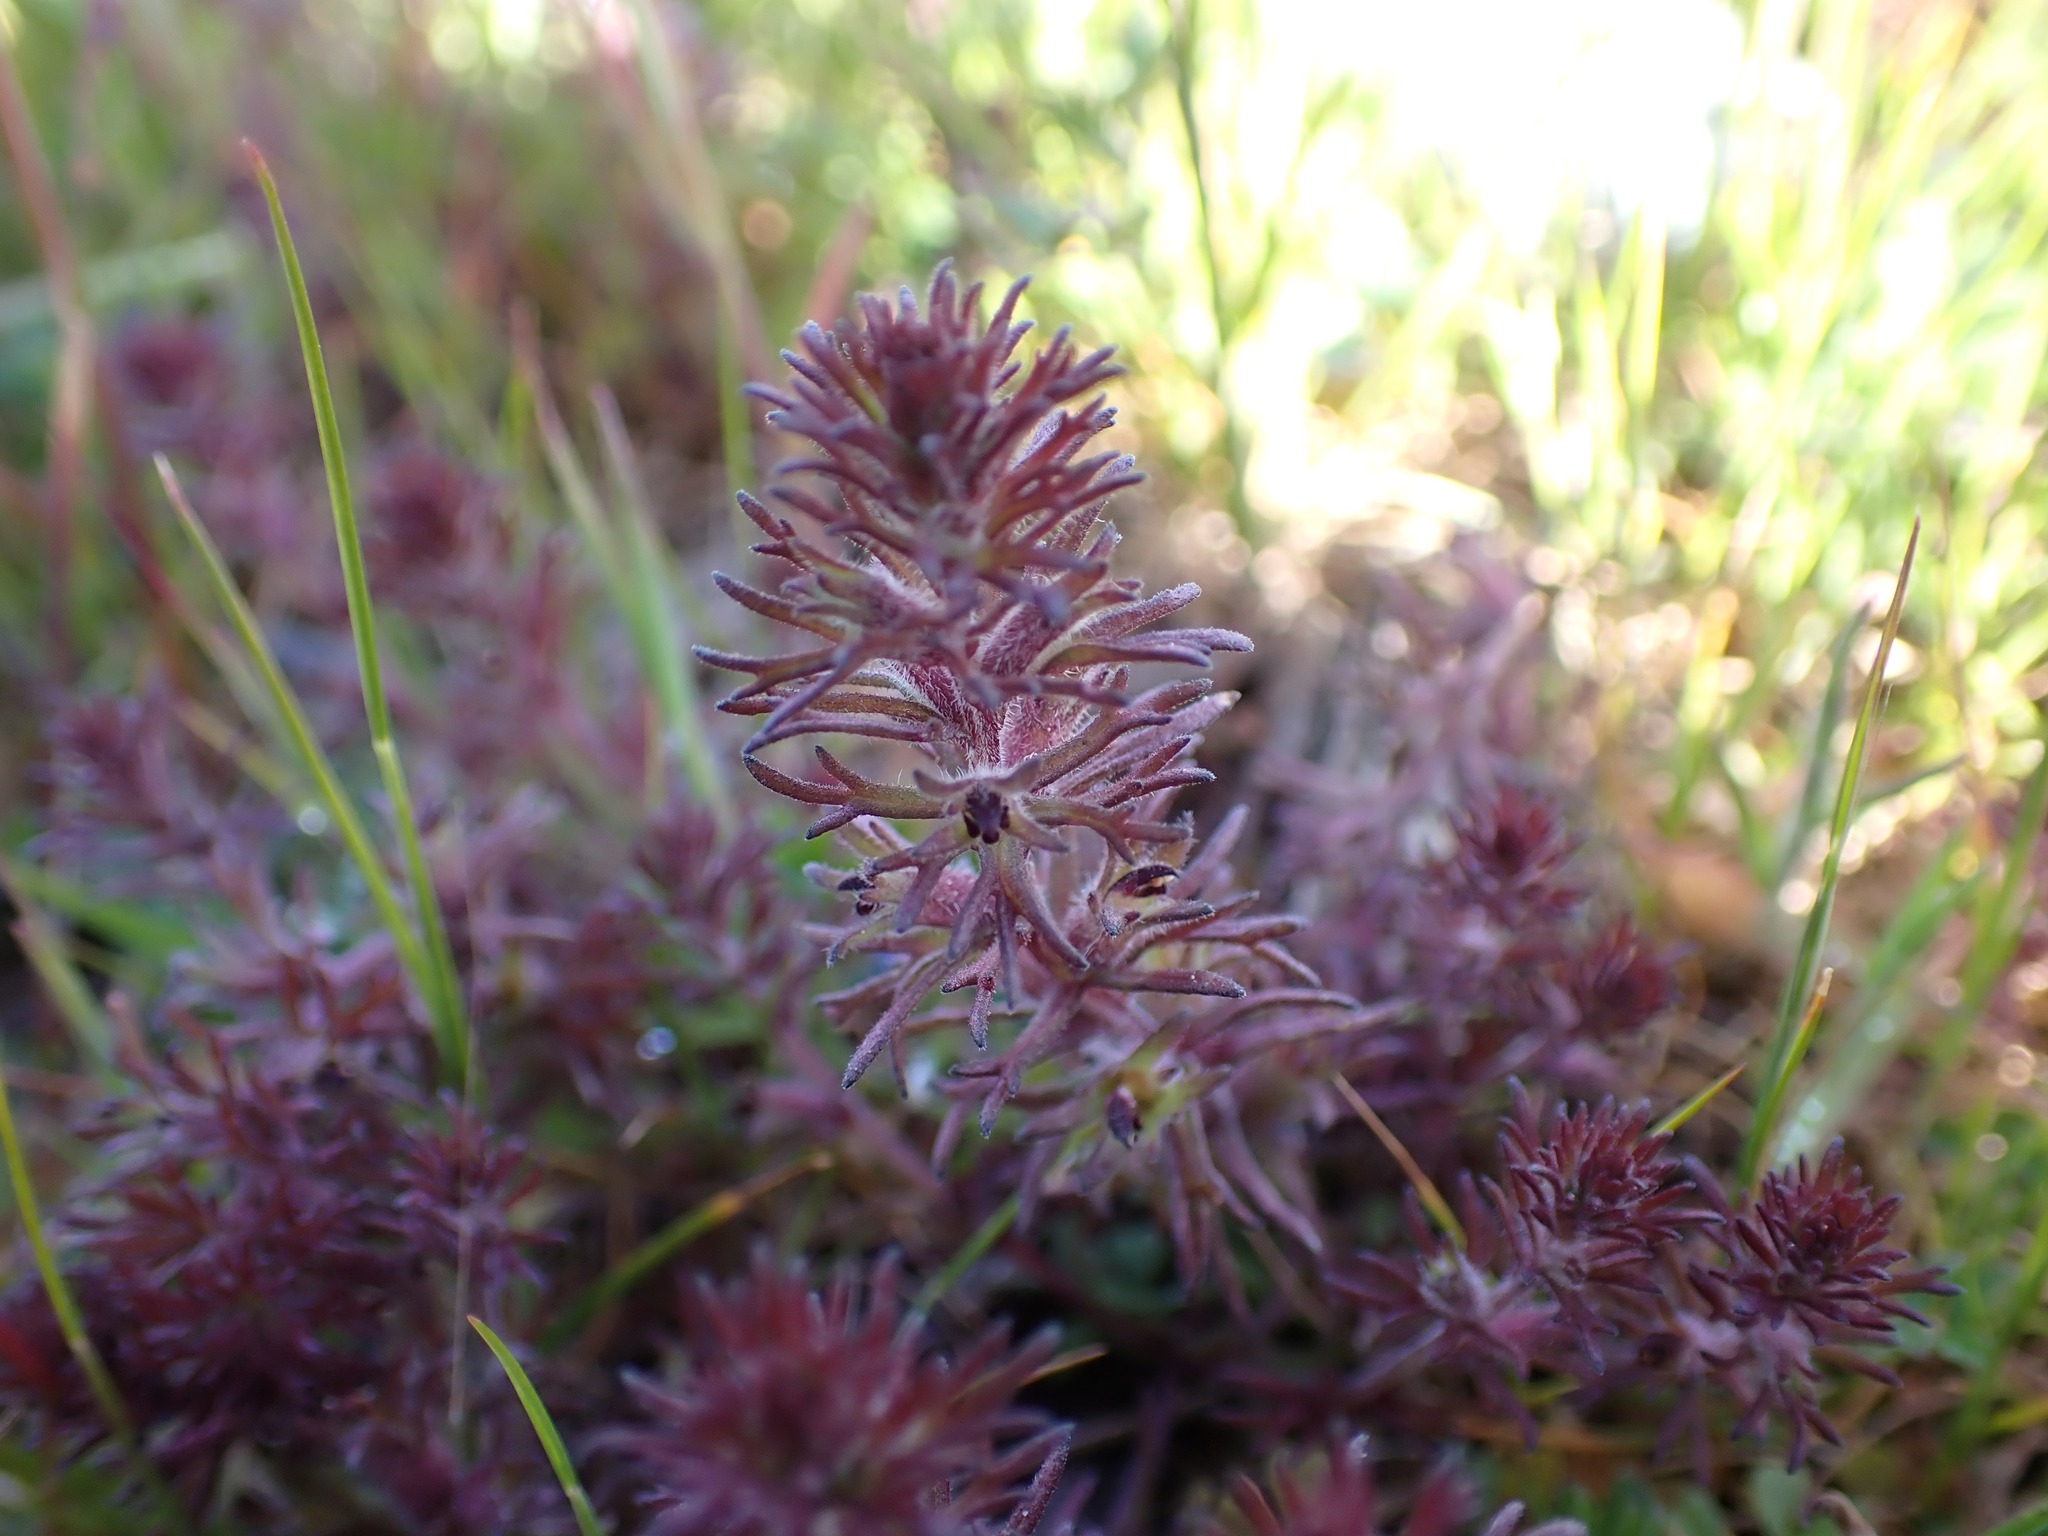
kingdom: Plantae
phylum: Tracheophyta
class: Magnoliopsida
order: Lamiales
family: Orobanchaceae
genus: Triphysaria
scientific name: Triphysaria pusilla
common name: Dwarf false owl-clover
